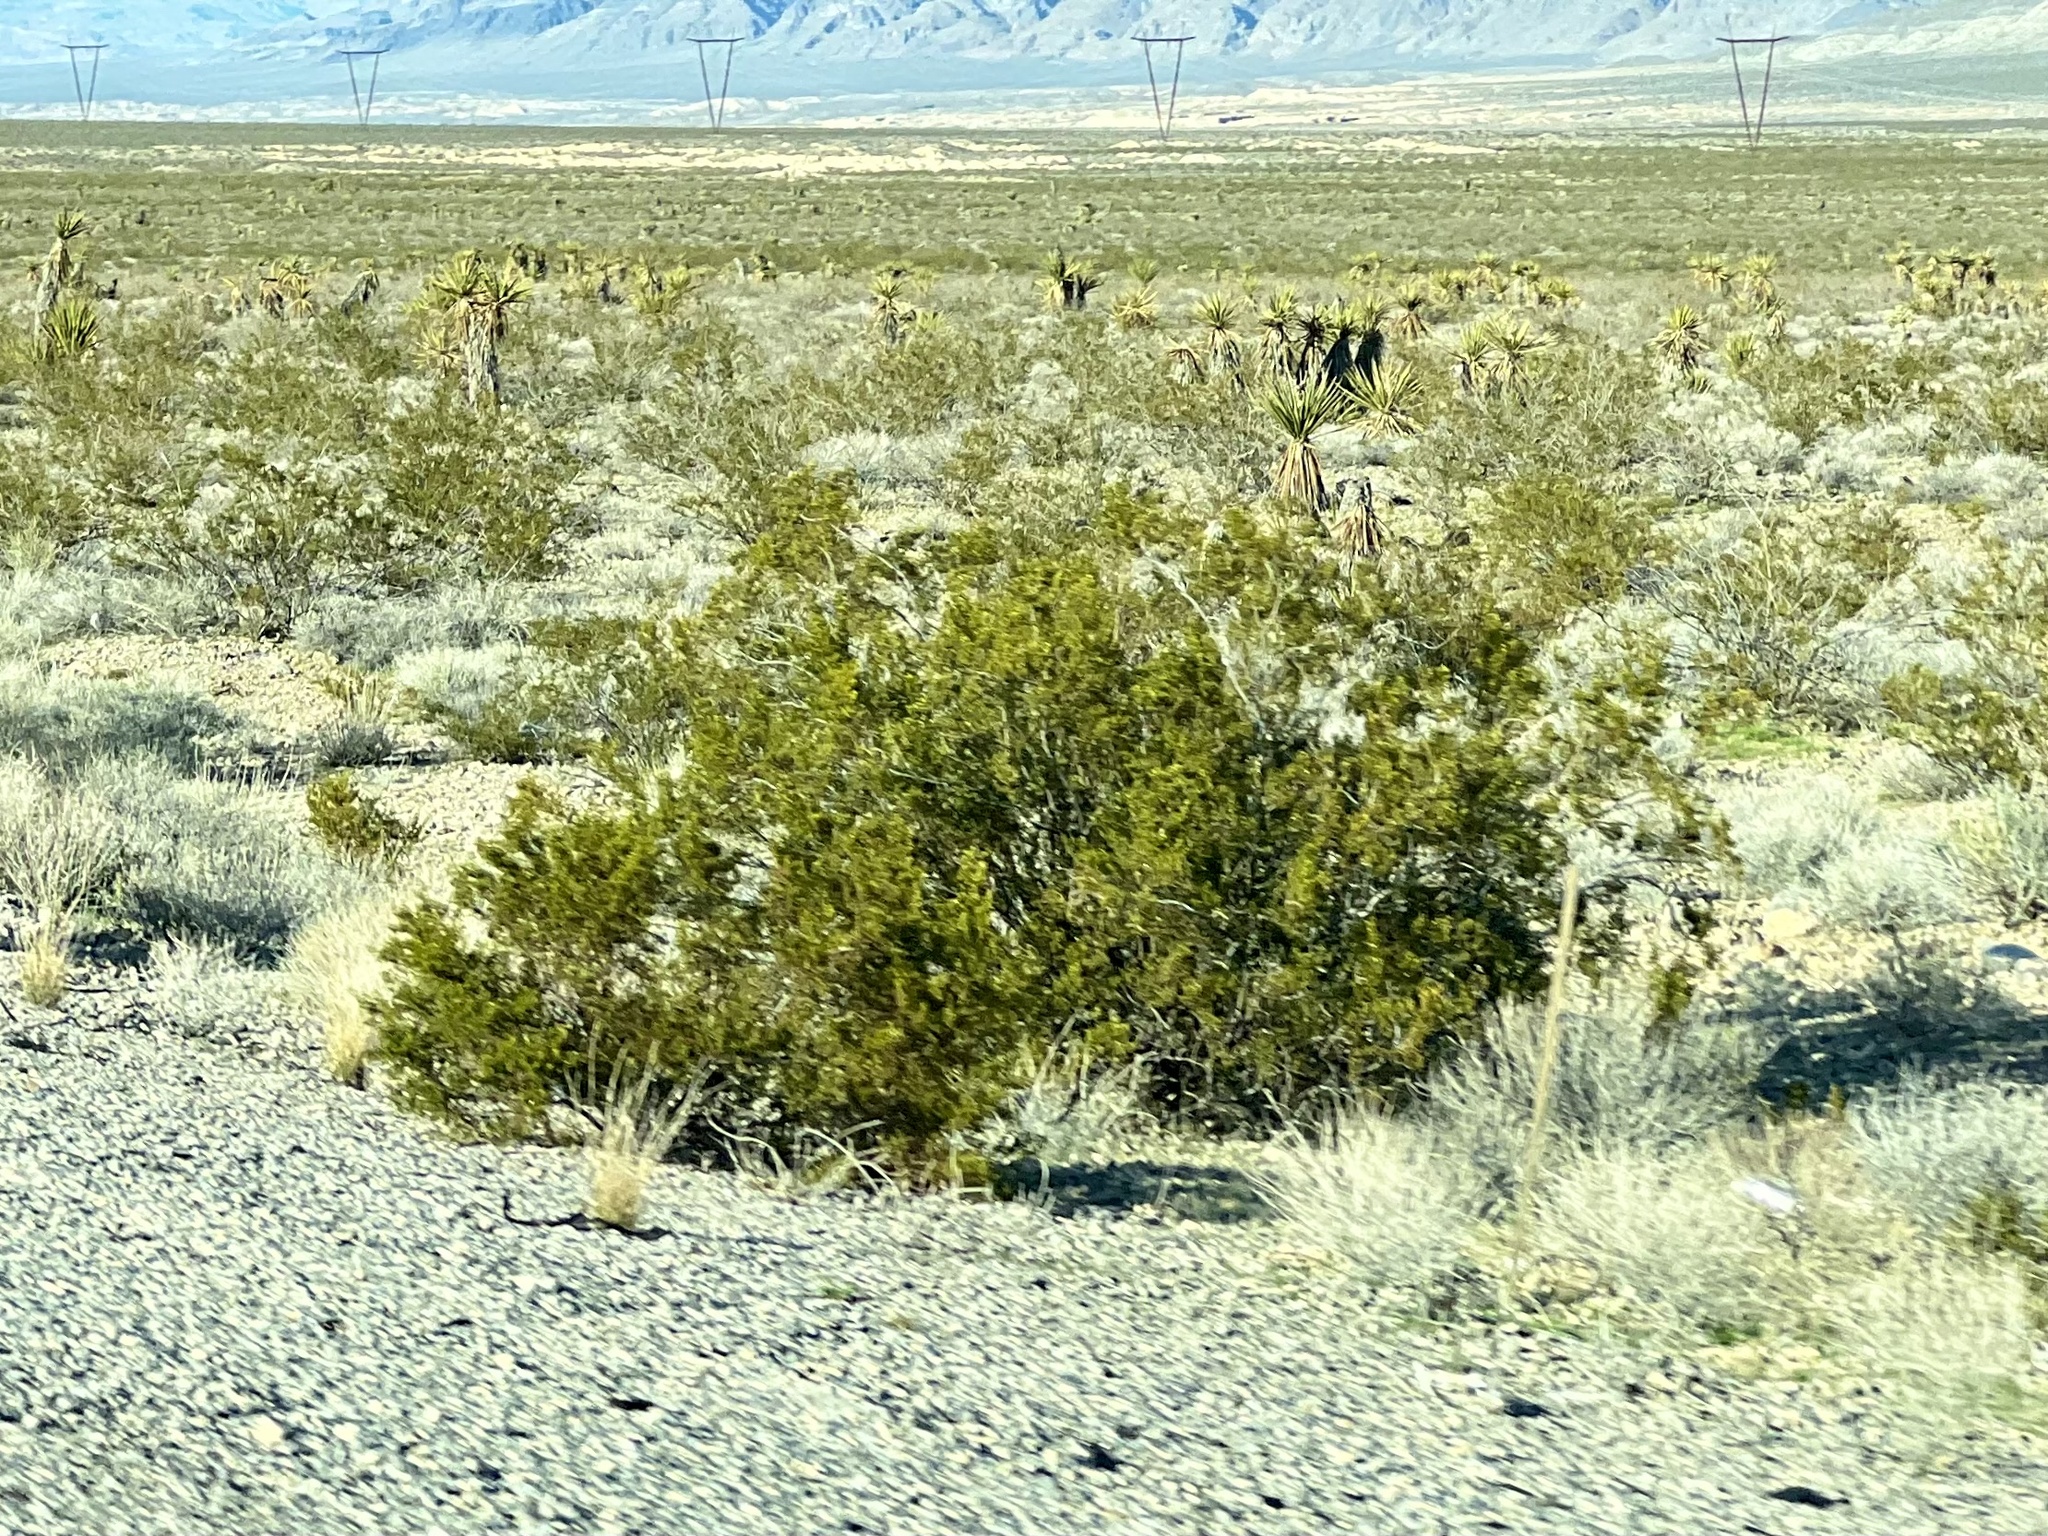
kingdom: Plantae
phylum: Tracheophyta
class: Magnoliopsida
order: Zygophyllales
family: Zygophyllaceae
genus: Larrea
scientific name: Larrea tridentata
